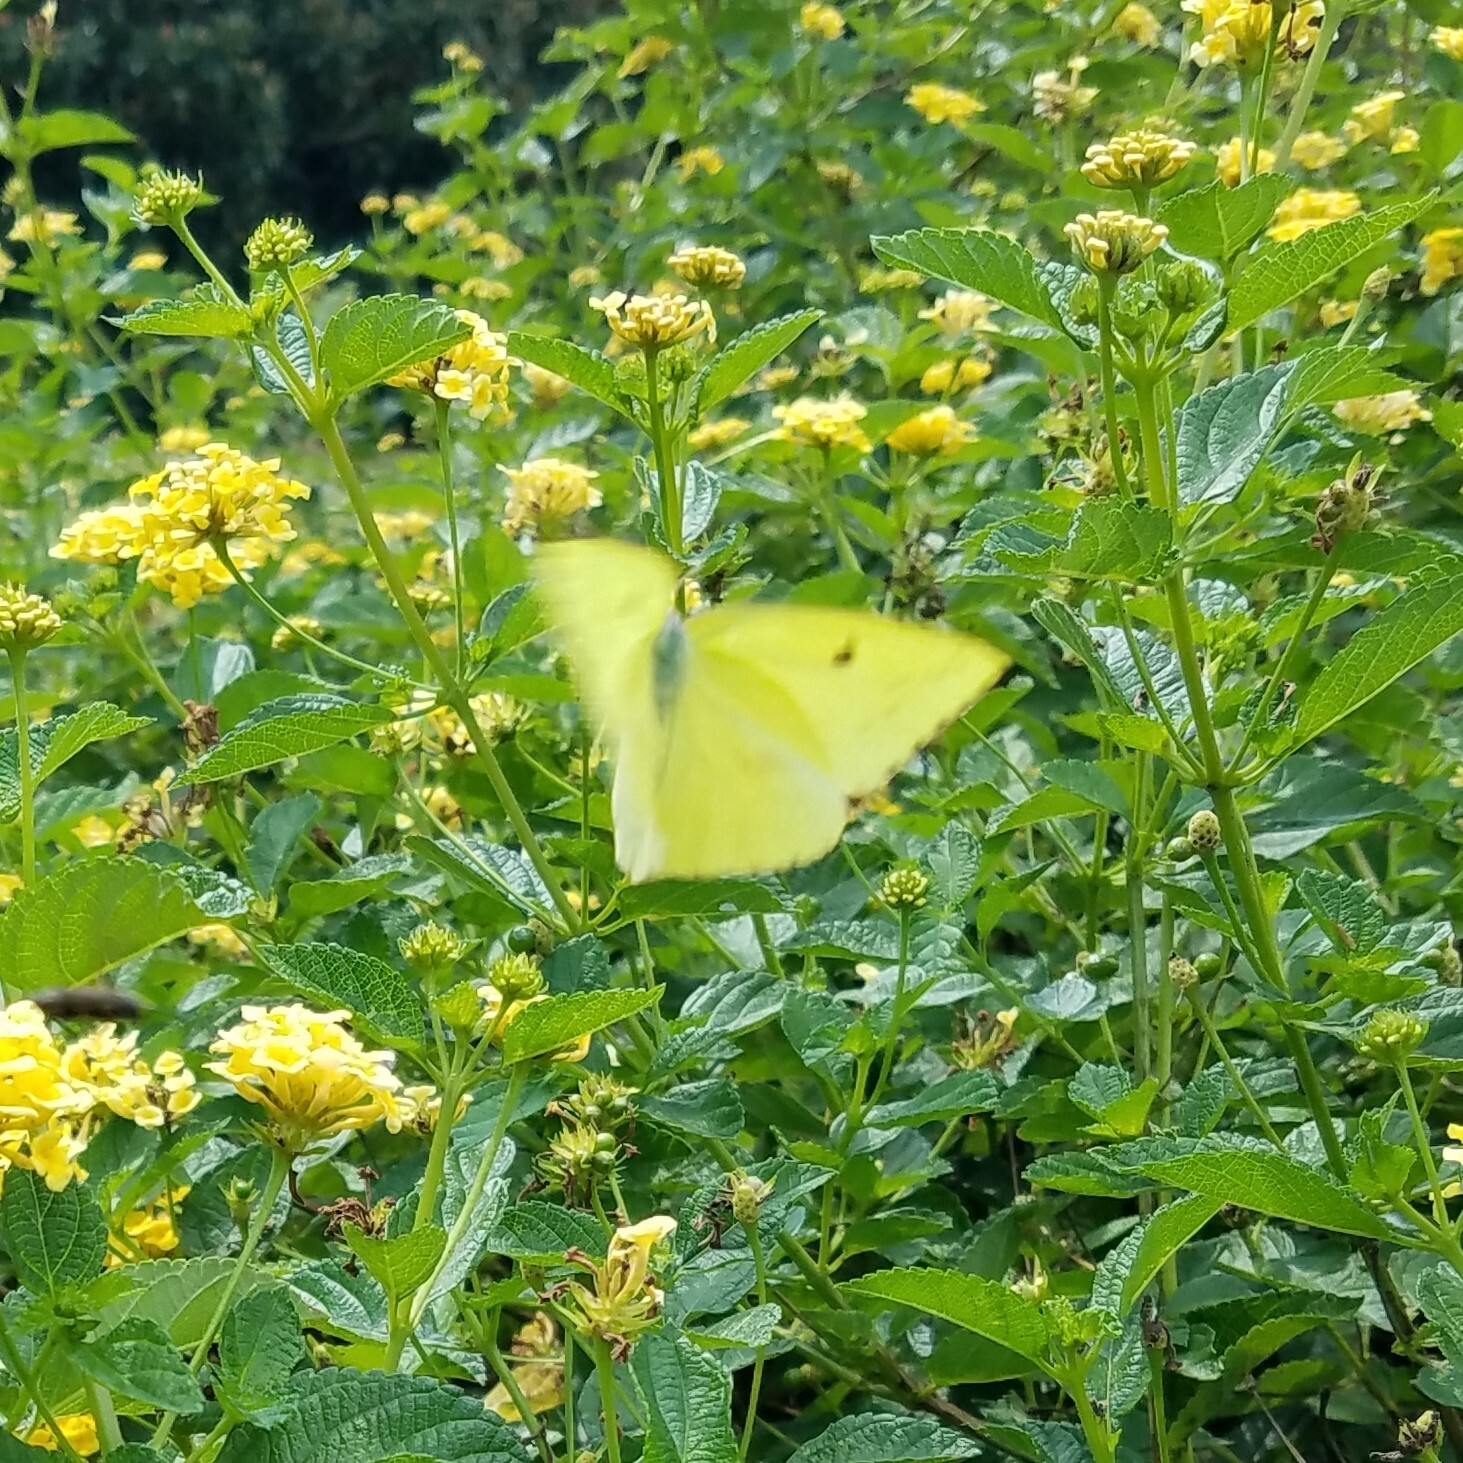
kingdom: Animalia
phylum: Arthropoda
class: Insecta
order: Lepidoptera
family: Pieridae
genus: Phoebis
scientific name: Phoebis sennae
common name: Cloudless sulphur
